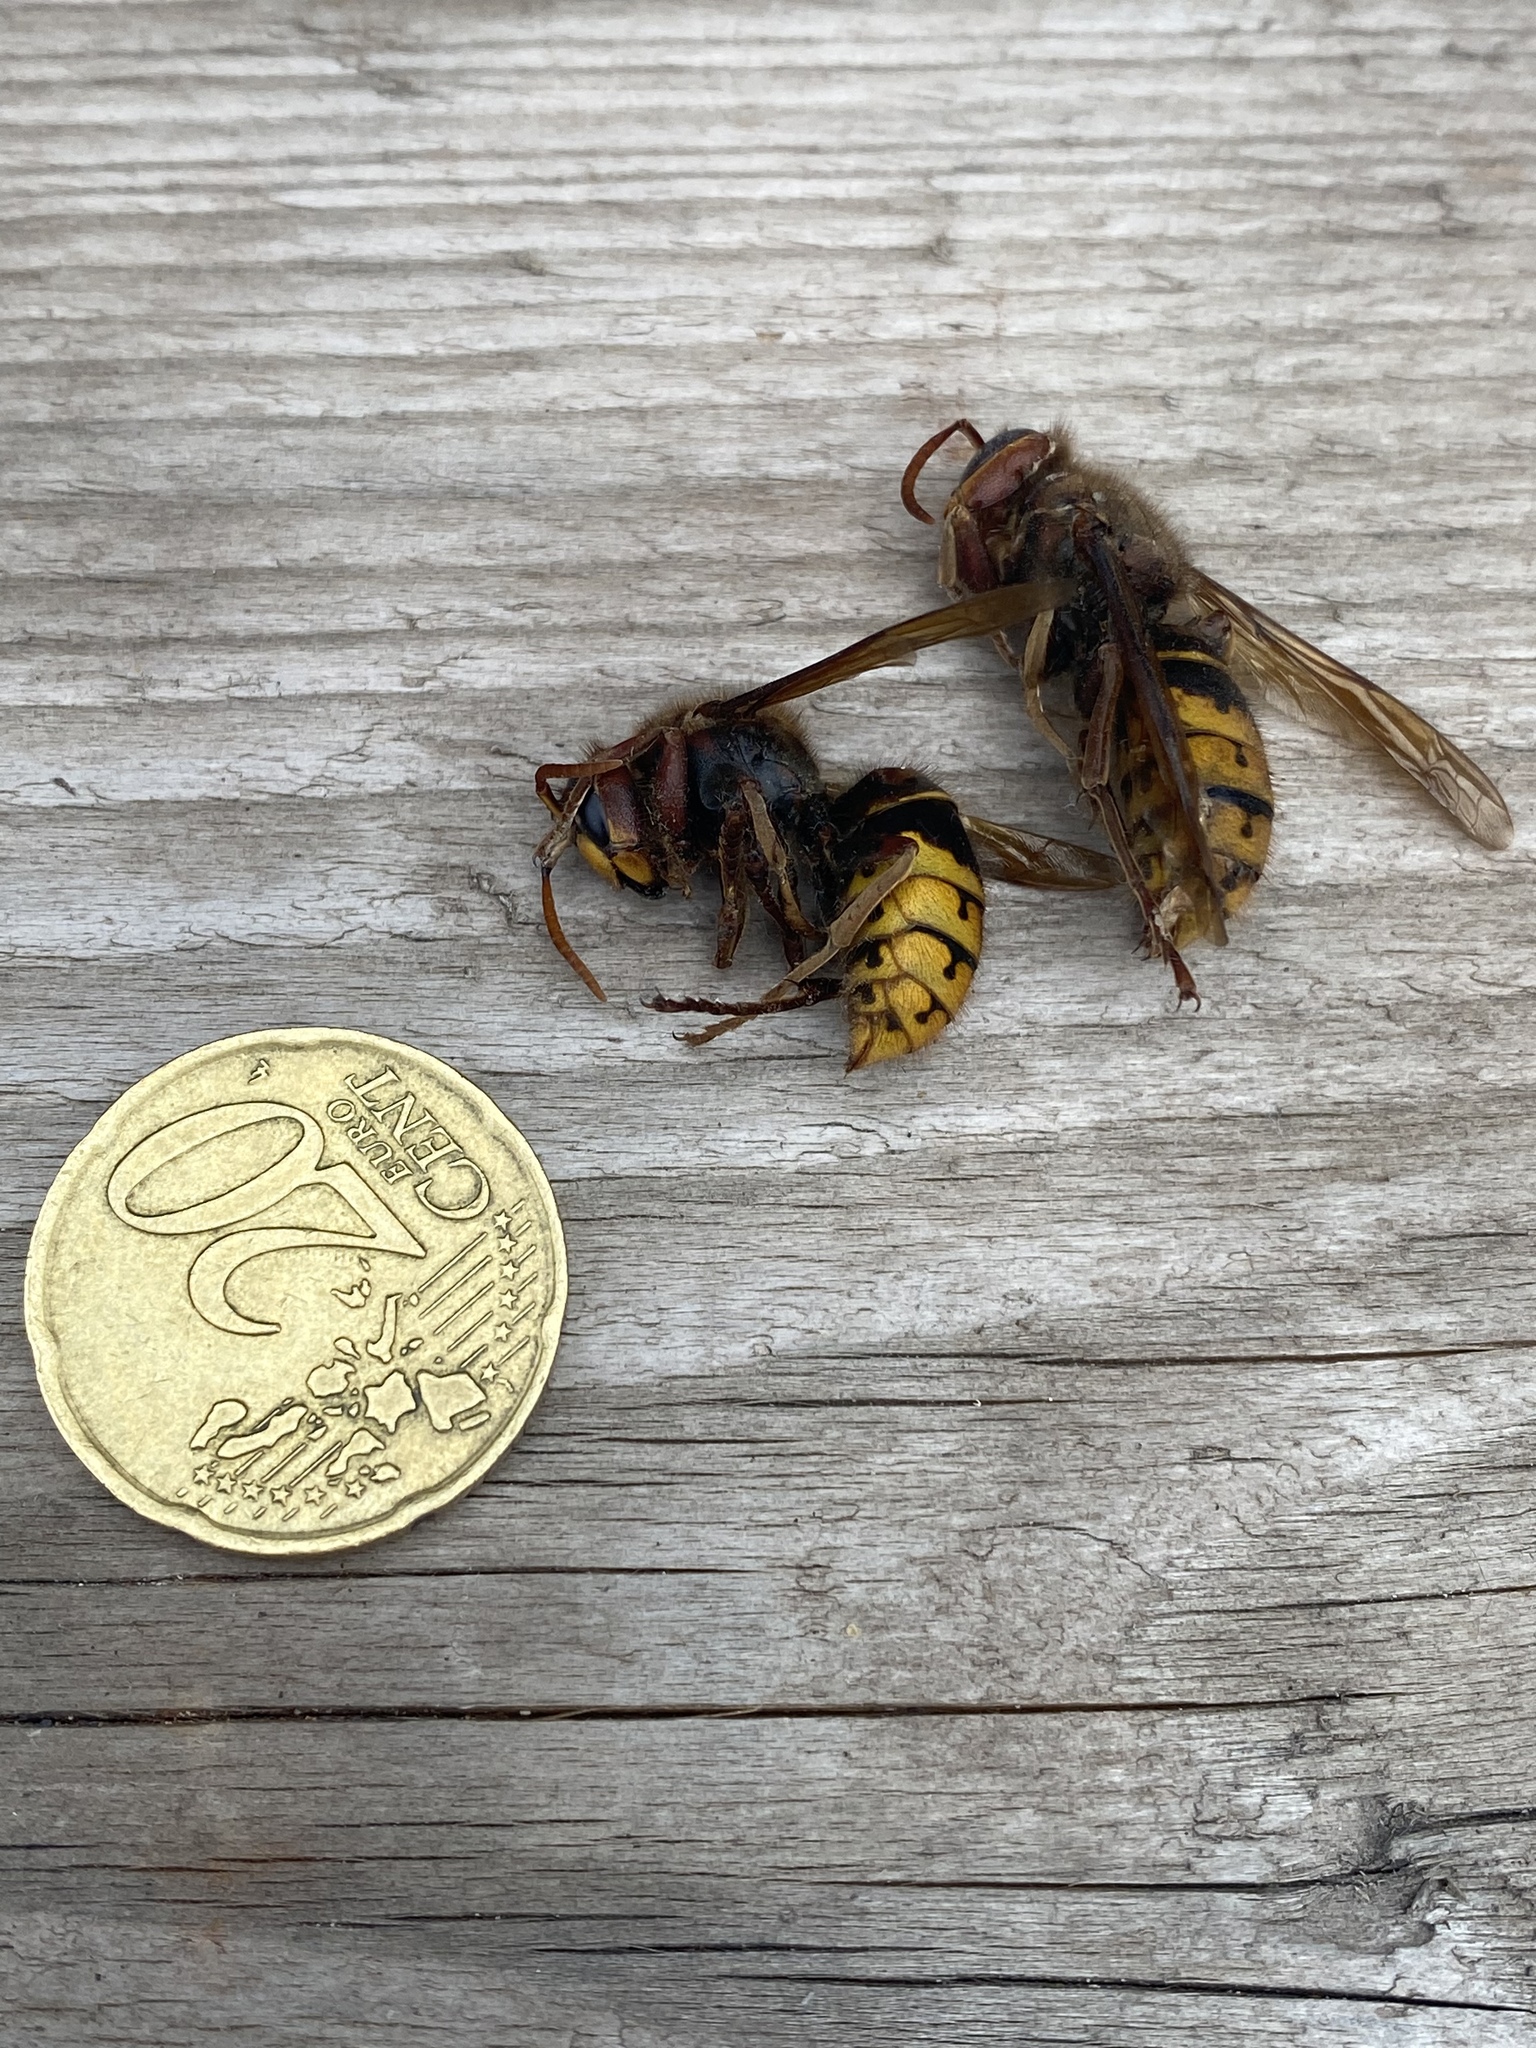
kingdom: Animalia
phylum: Arthropoda
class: Insecta
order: Hymenoptera
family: Vespidae
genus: Vespa
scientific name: Vespa crabro
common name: Hornet
